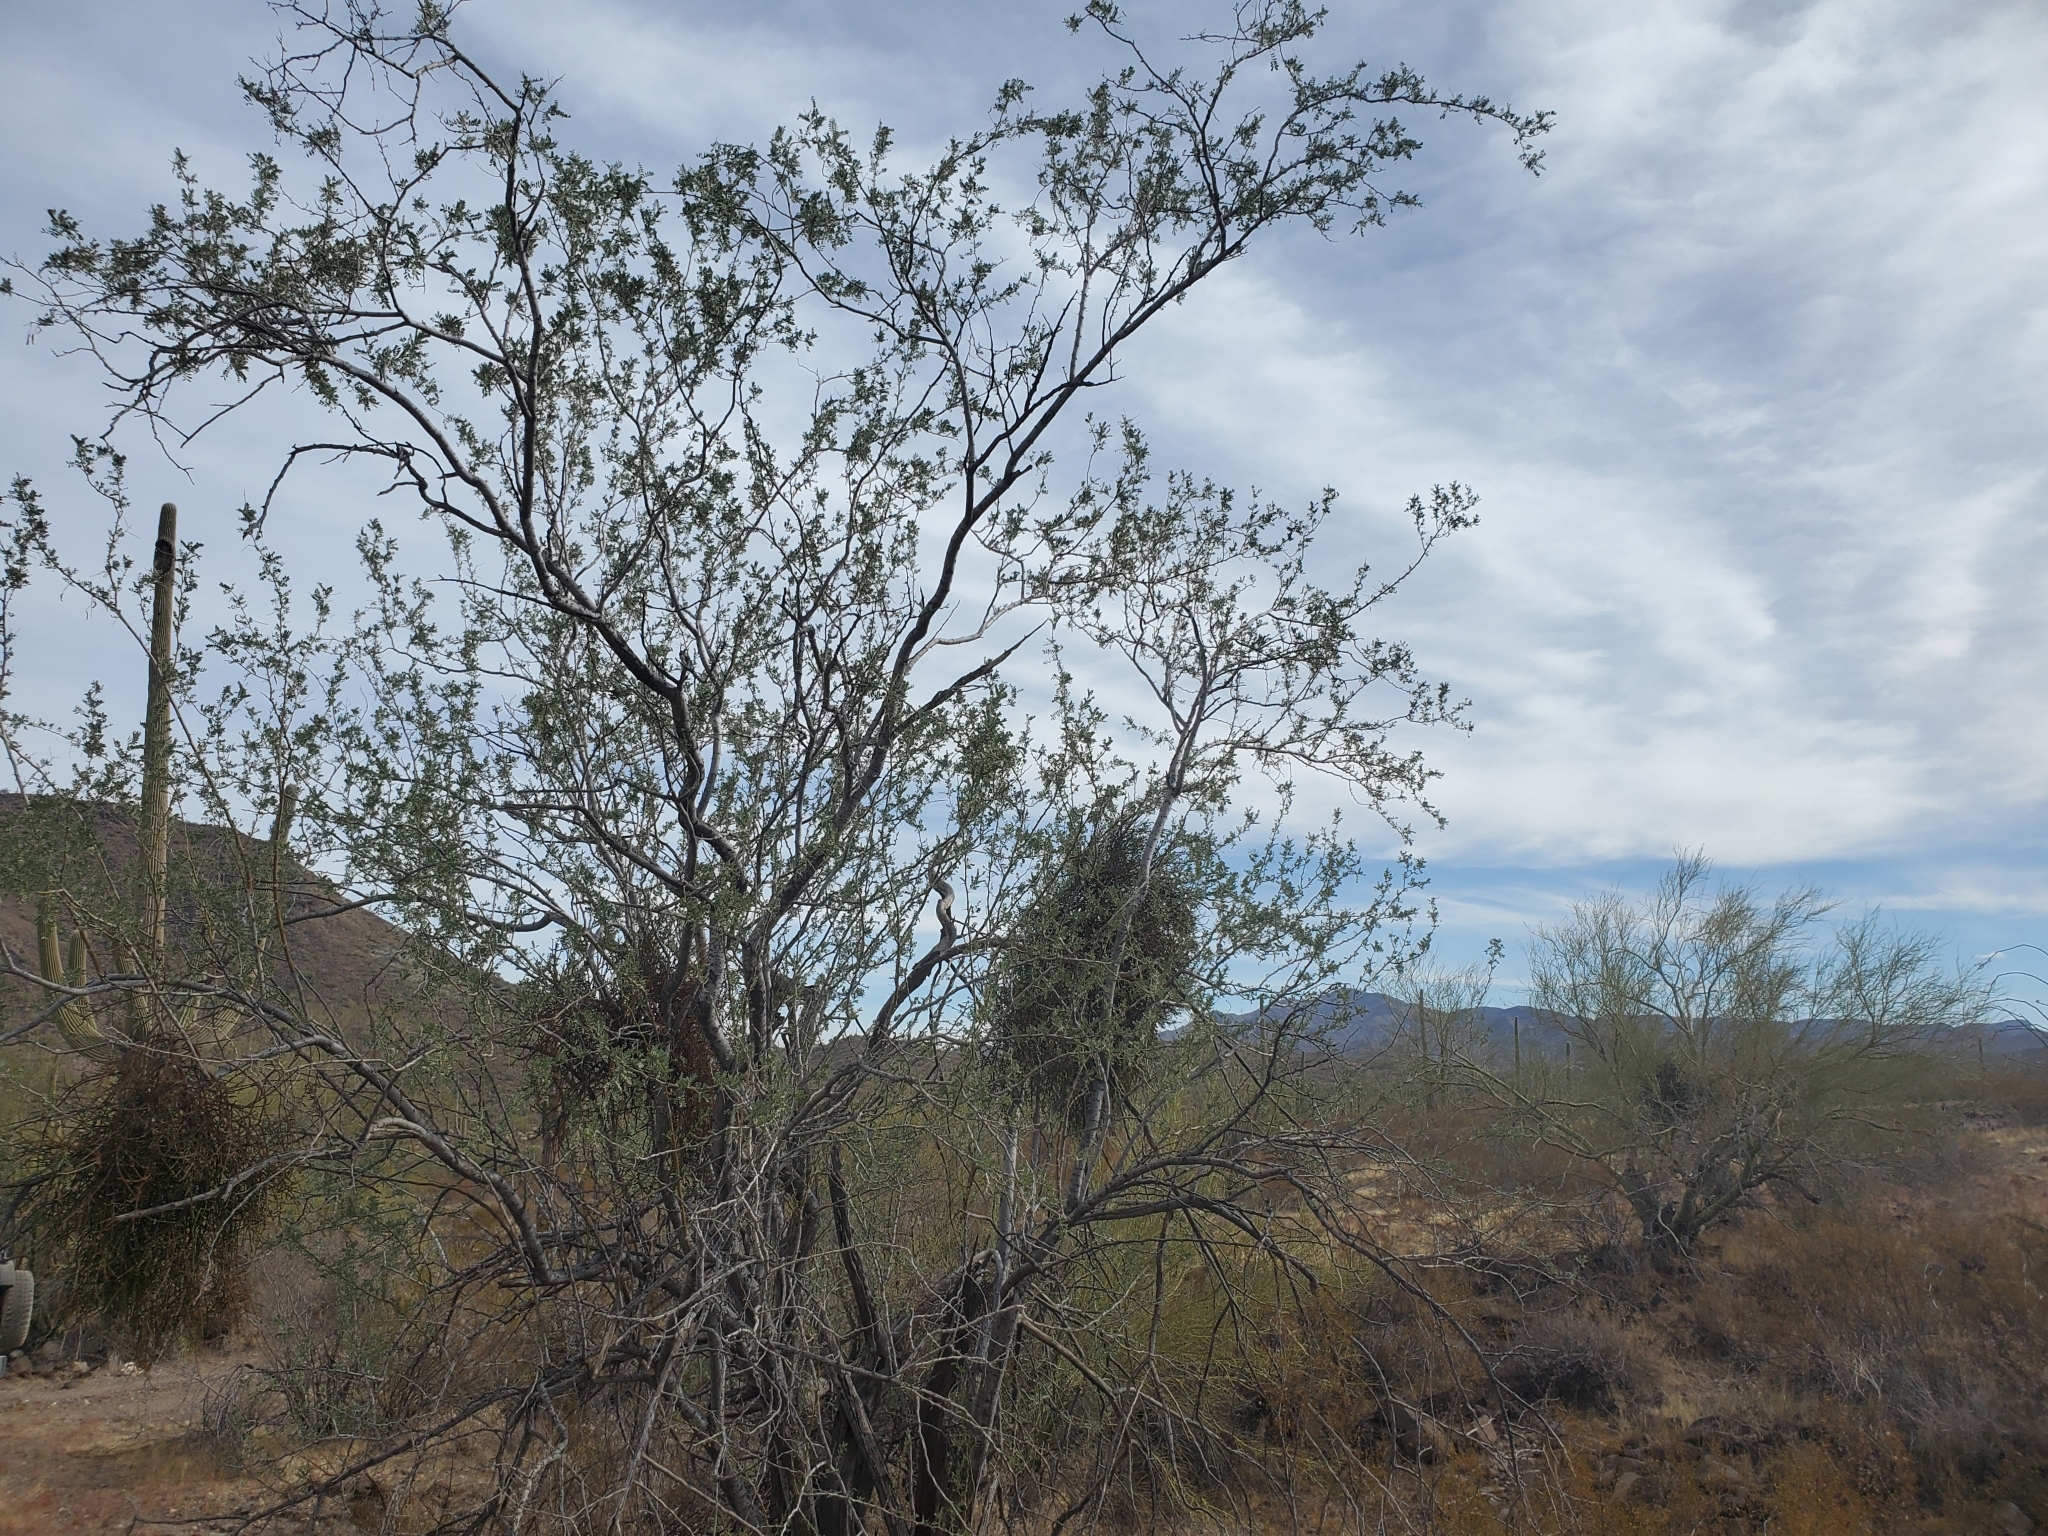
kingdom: Plantae
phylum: Tracheophyta
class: Magnoliopsida
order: Santalales
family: Viscaceae
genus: Phoradendron
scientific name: Phoradendron californicum
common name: Acacia mistletoe
